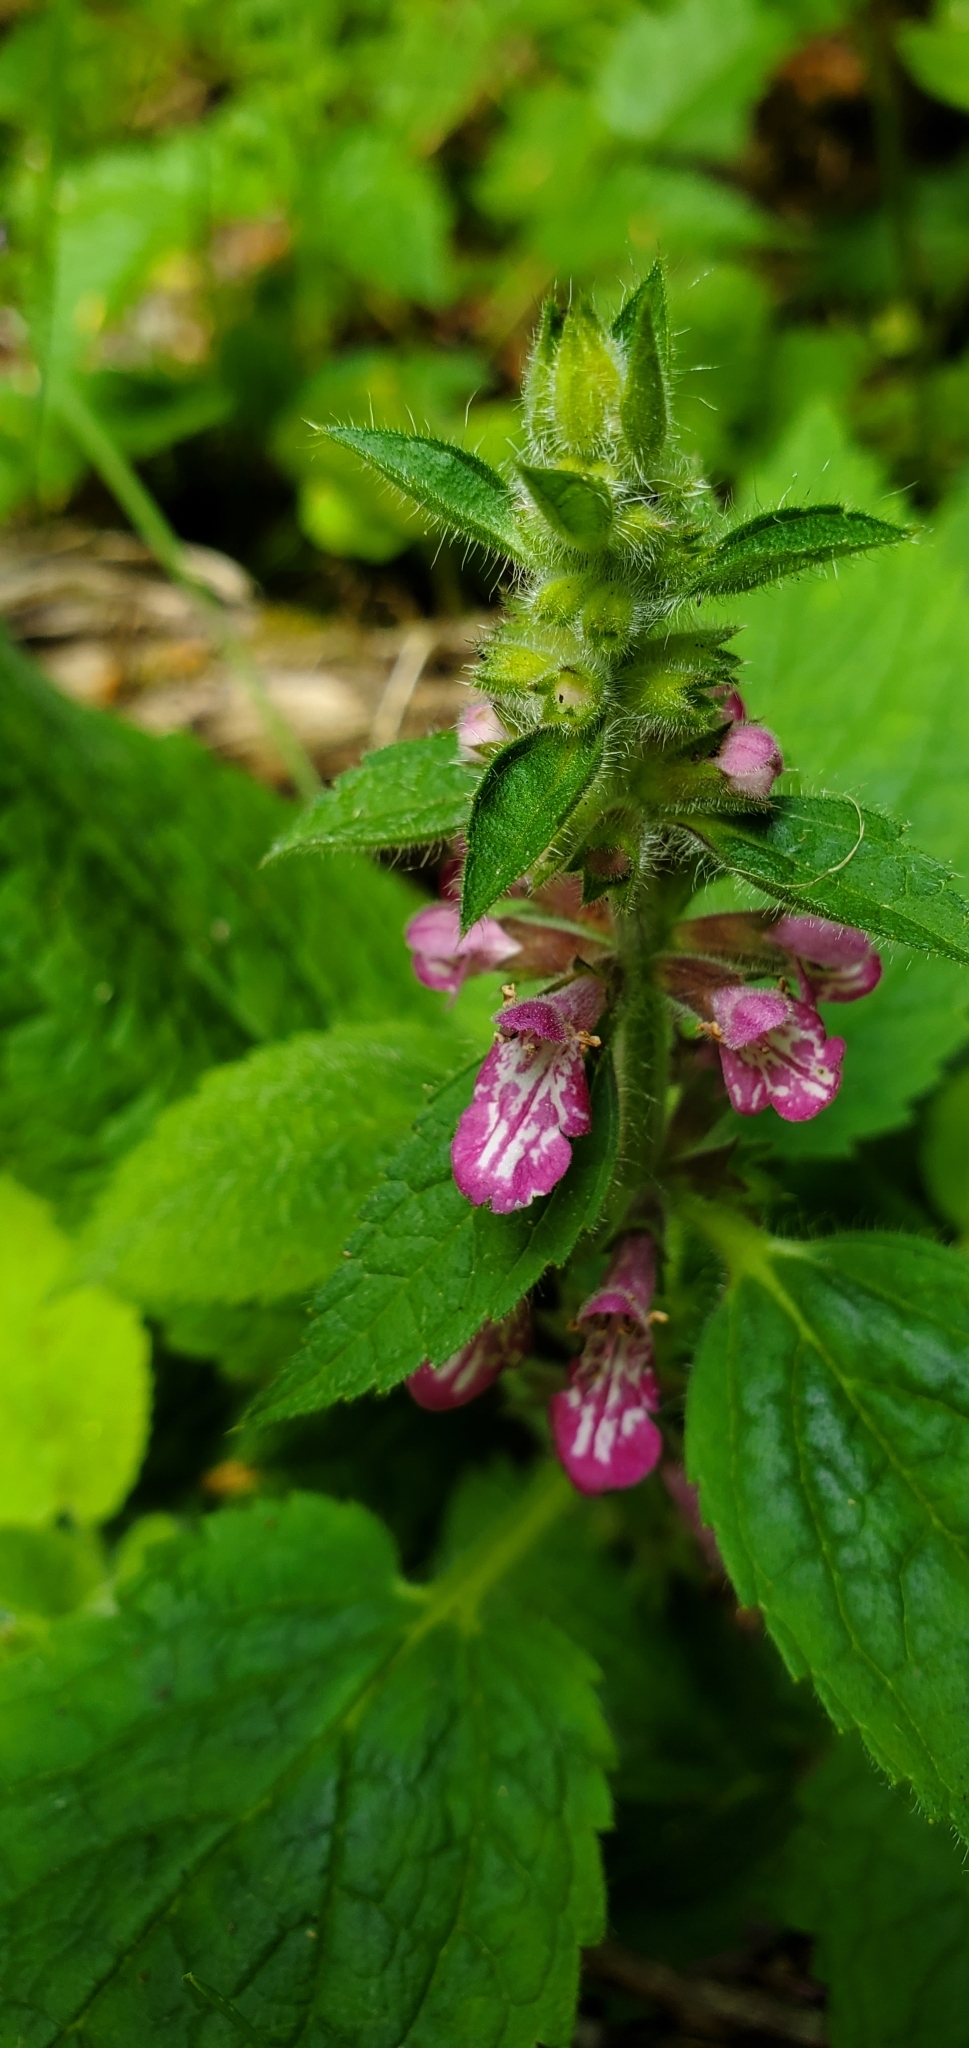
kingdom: Plantae
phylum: Tracheophyta
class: Magnoliopsida
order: Lamiales
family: Lamiaceae
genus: Stachys
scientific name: Stachys mexicana
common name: Mexican hedge-nettle
